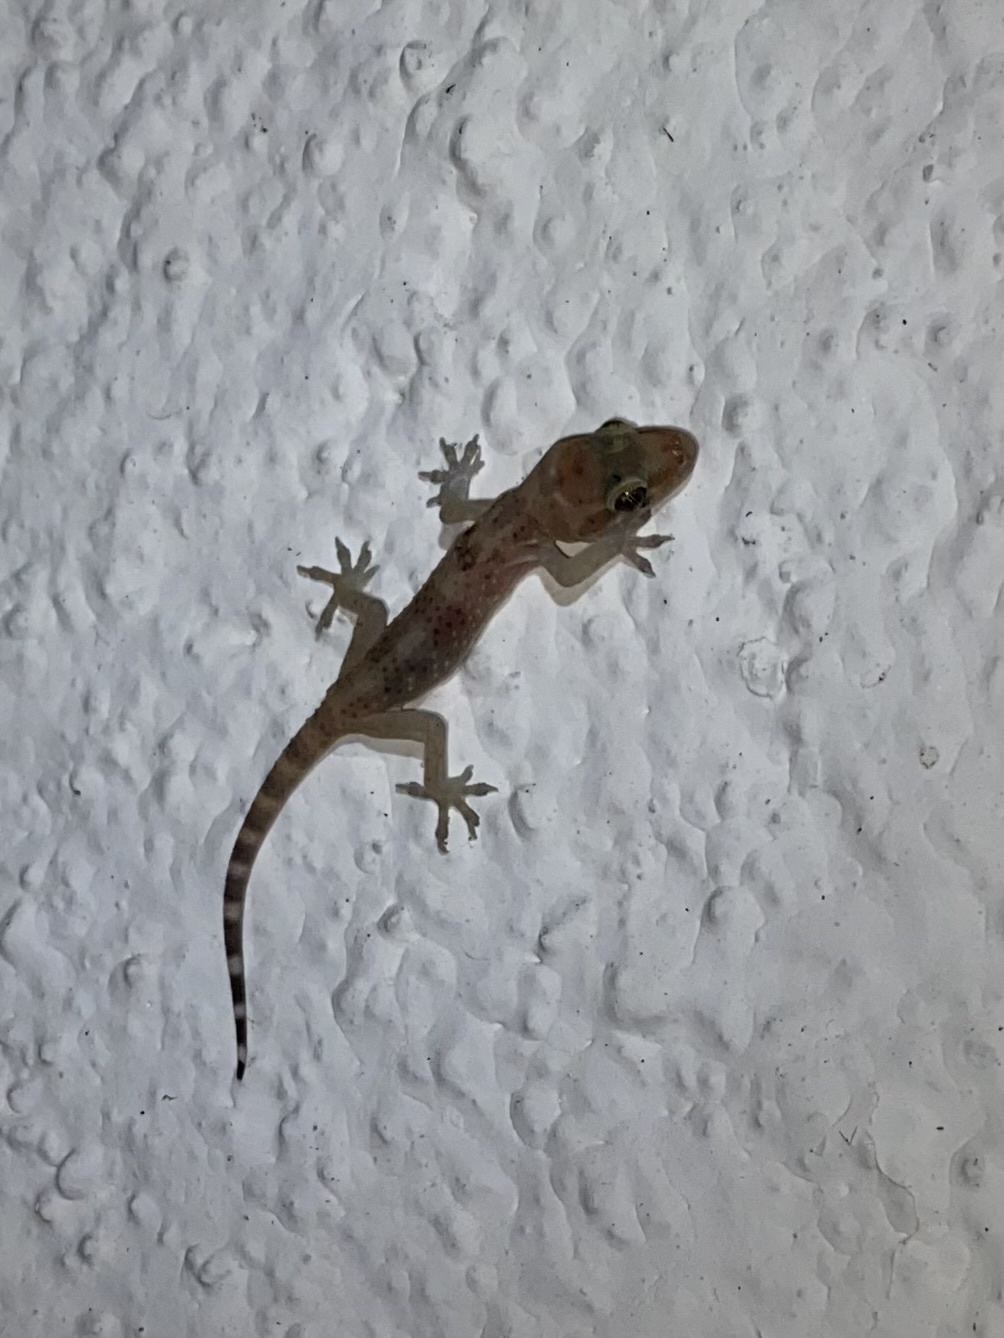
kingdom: Animalia
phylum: Chordata
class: Squamata
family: Gekkonidae
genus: Hemidactylus
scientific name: Hemidactylus turcicus
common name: Turkish gecko
